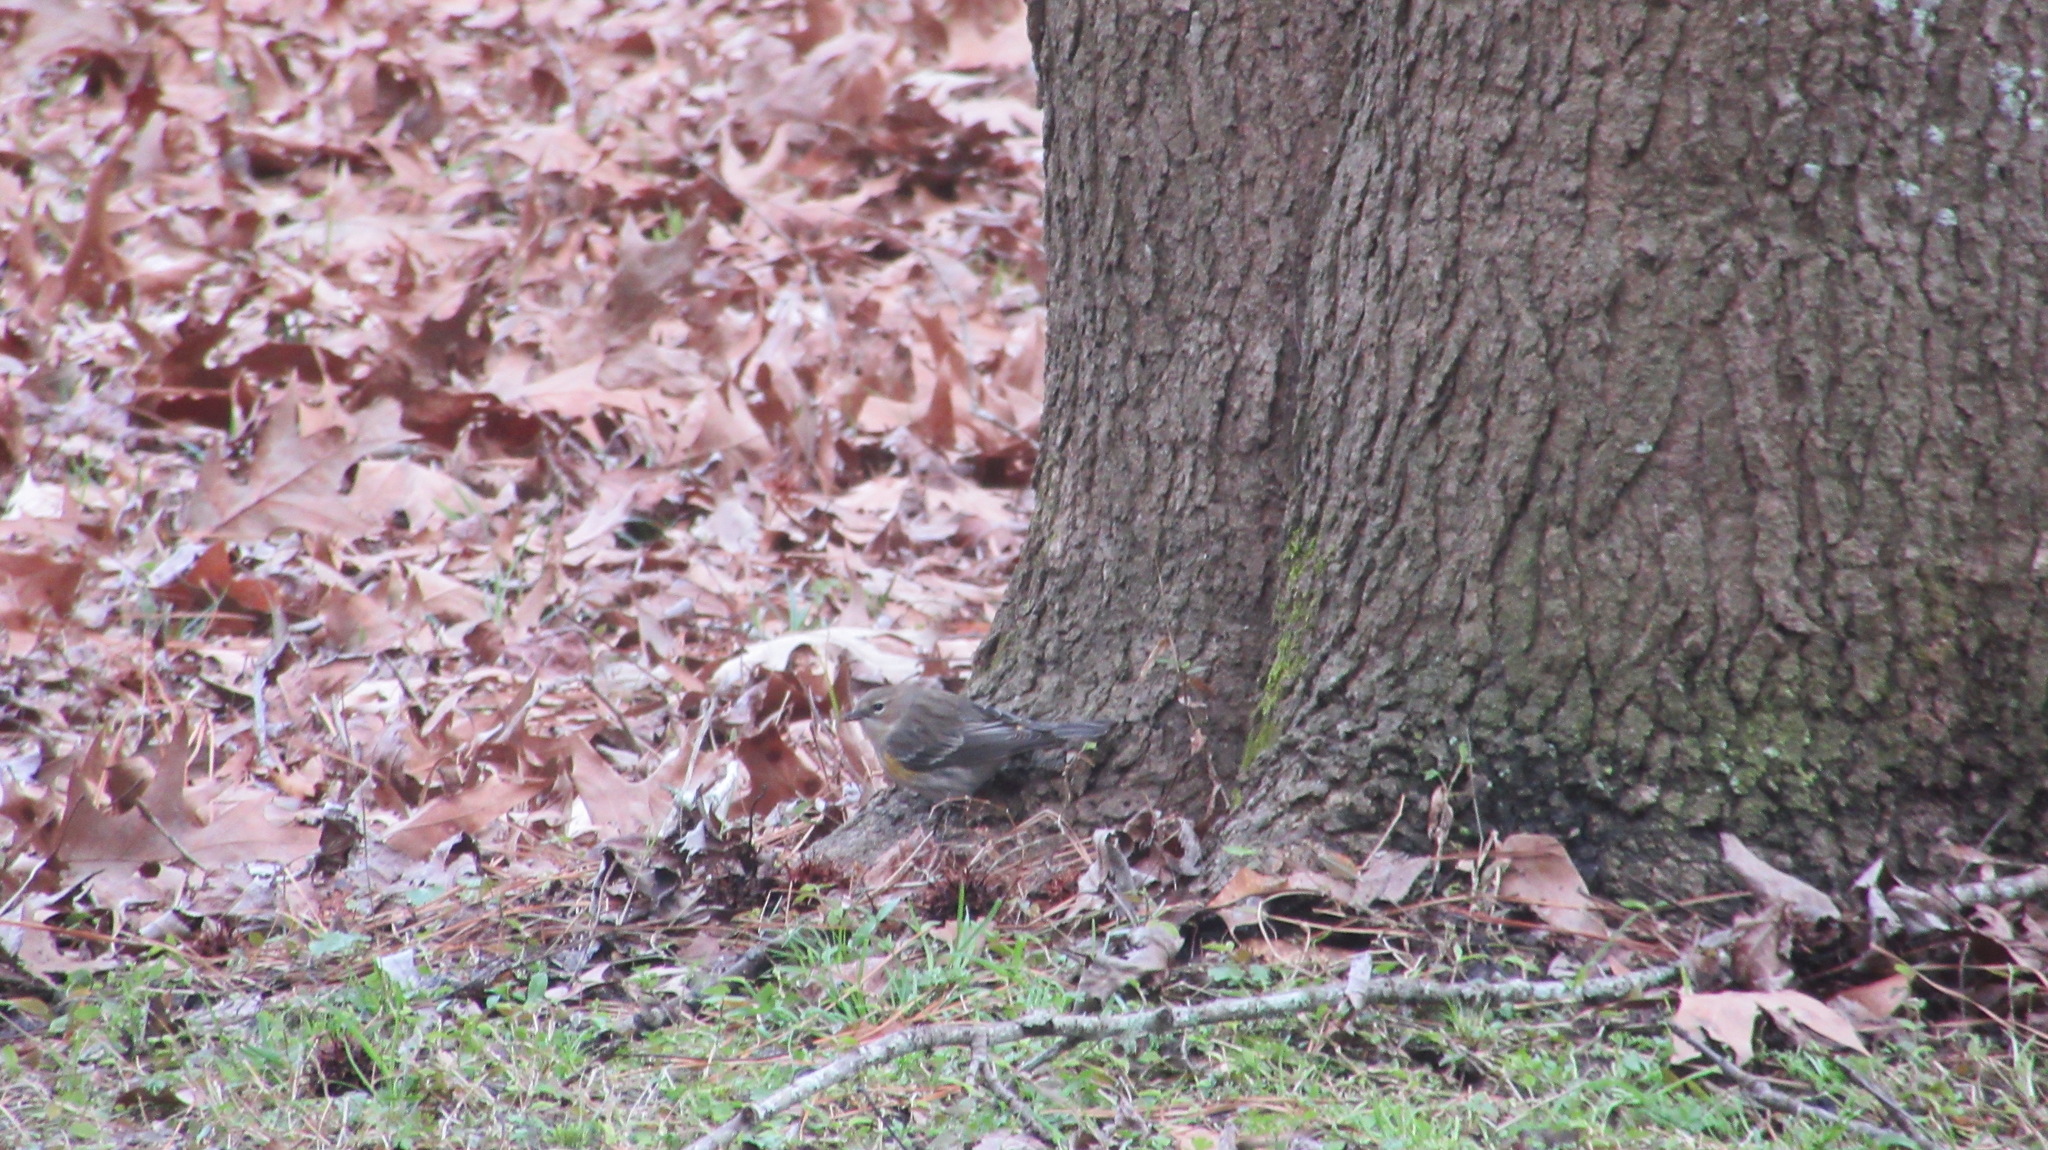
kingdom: Animalia
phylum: Chordata
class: Aves
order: Passeriformes
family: Parulidae
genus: Setophaga
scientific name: Setophaga coronata
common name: Myrtle warbler
